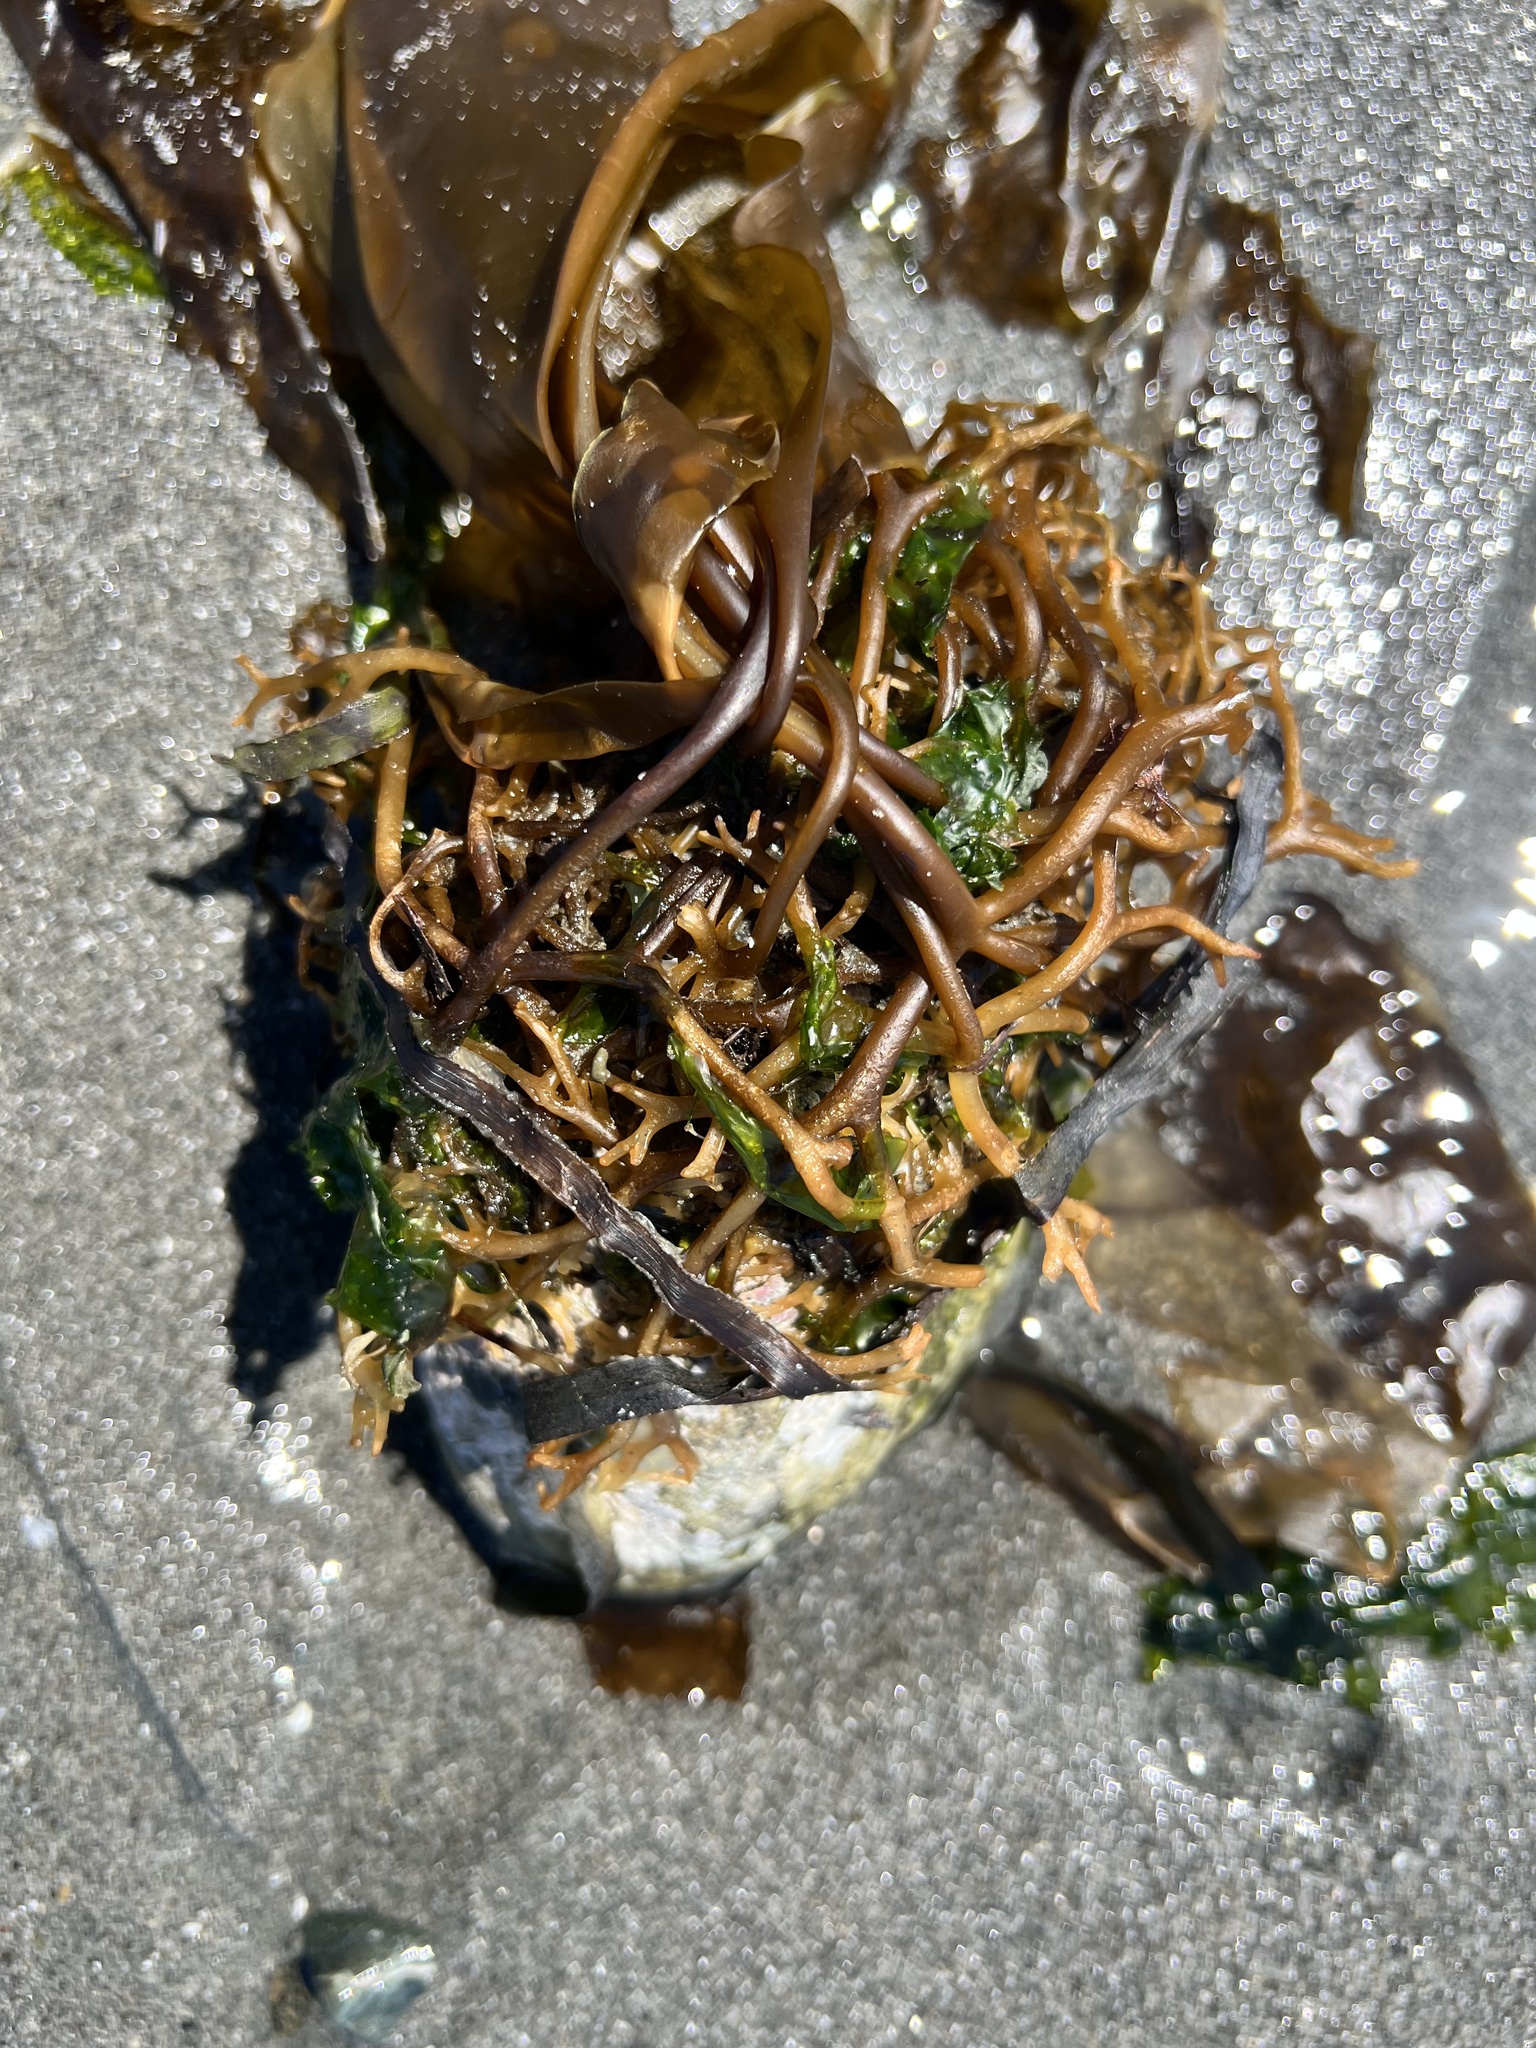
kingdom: Chromista
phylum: Ochrophyta
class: Phaeophyceae
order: Laminariales
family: Laminariaceae
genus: Macrocystis
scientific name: Macrocystis pyrifera
